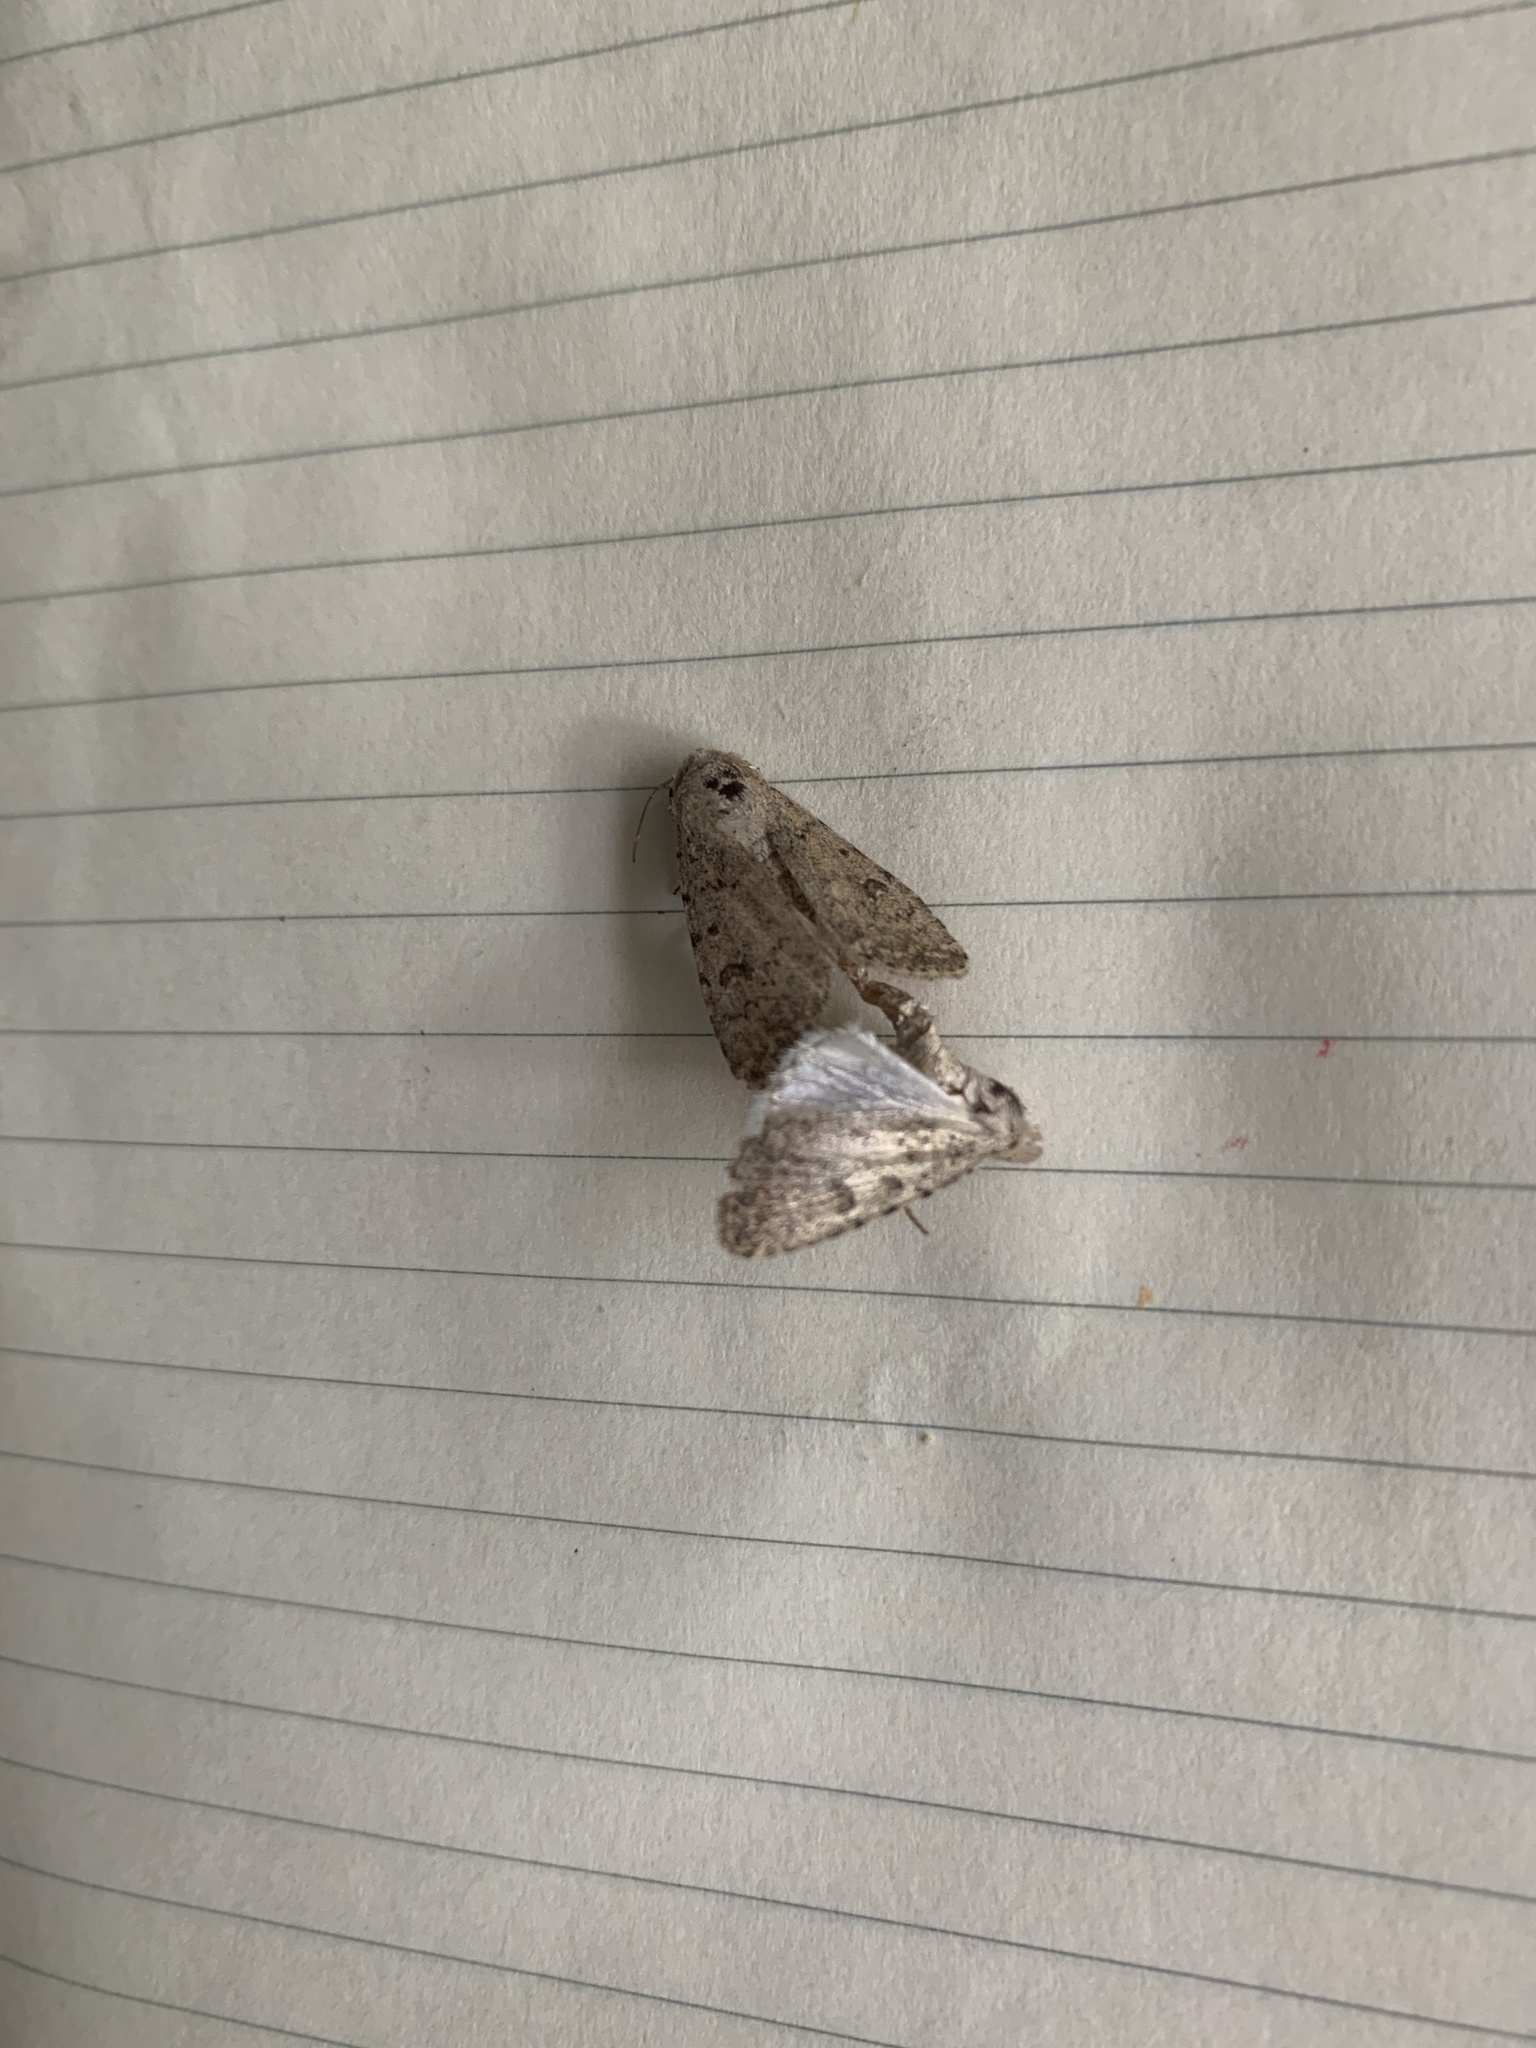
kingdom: Animalia
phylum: Arthropoda
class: Insecta
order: Lepidoptera
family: Noctuidae
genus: Caradrina
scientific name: Caradrina clavipalpis
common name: Pale mottled willow
